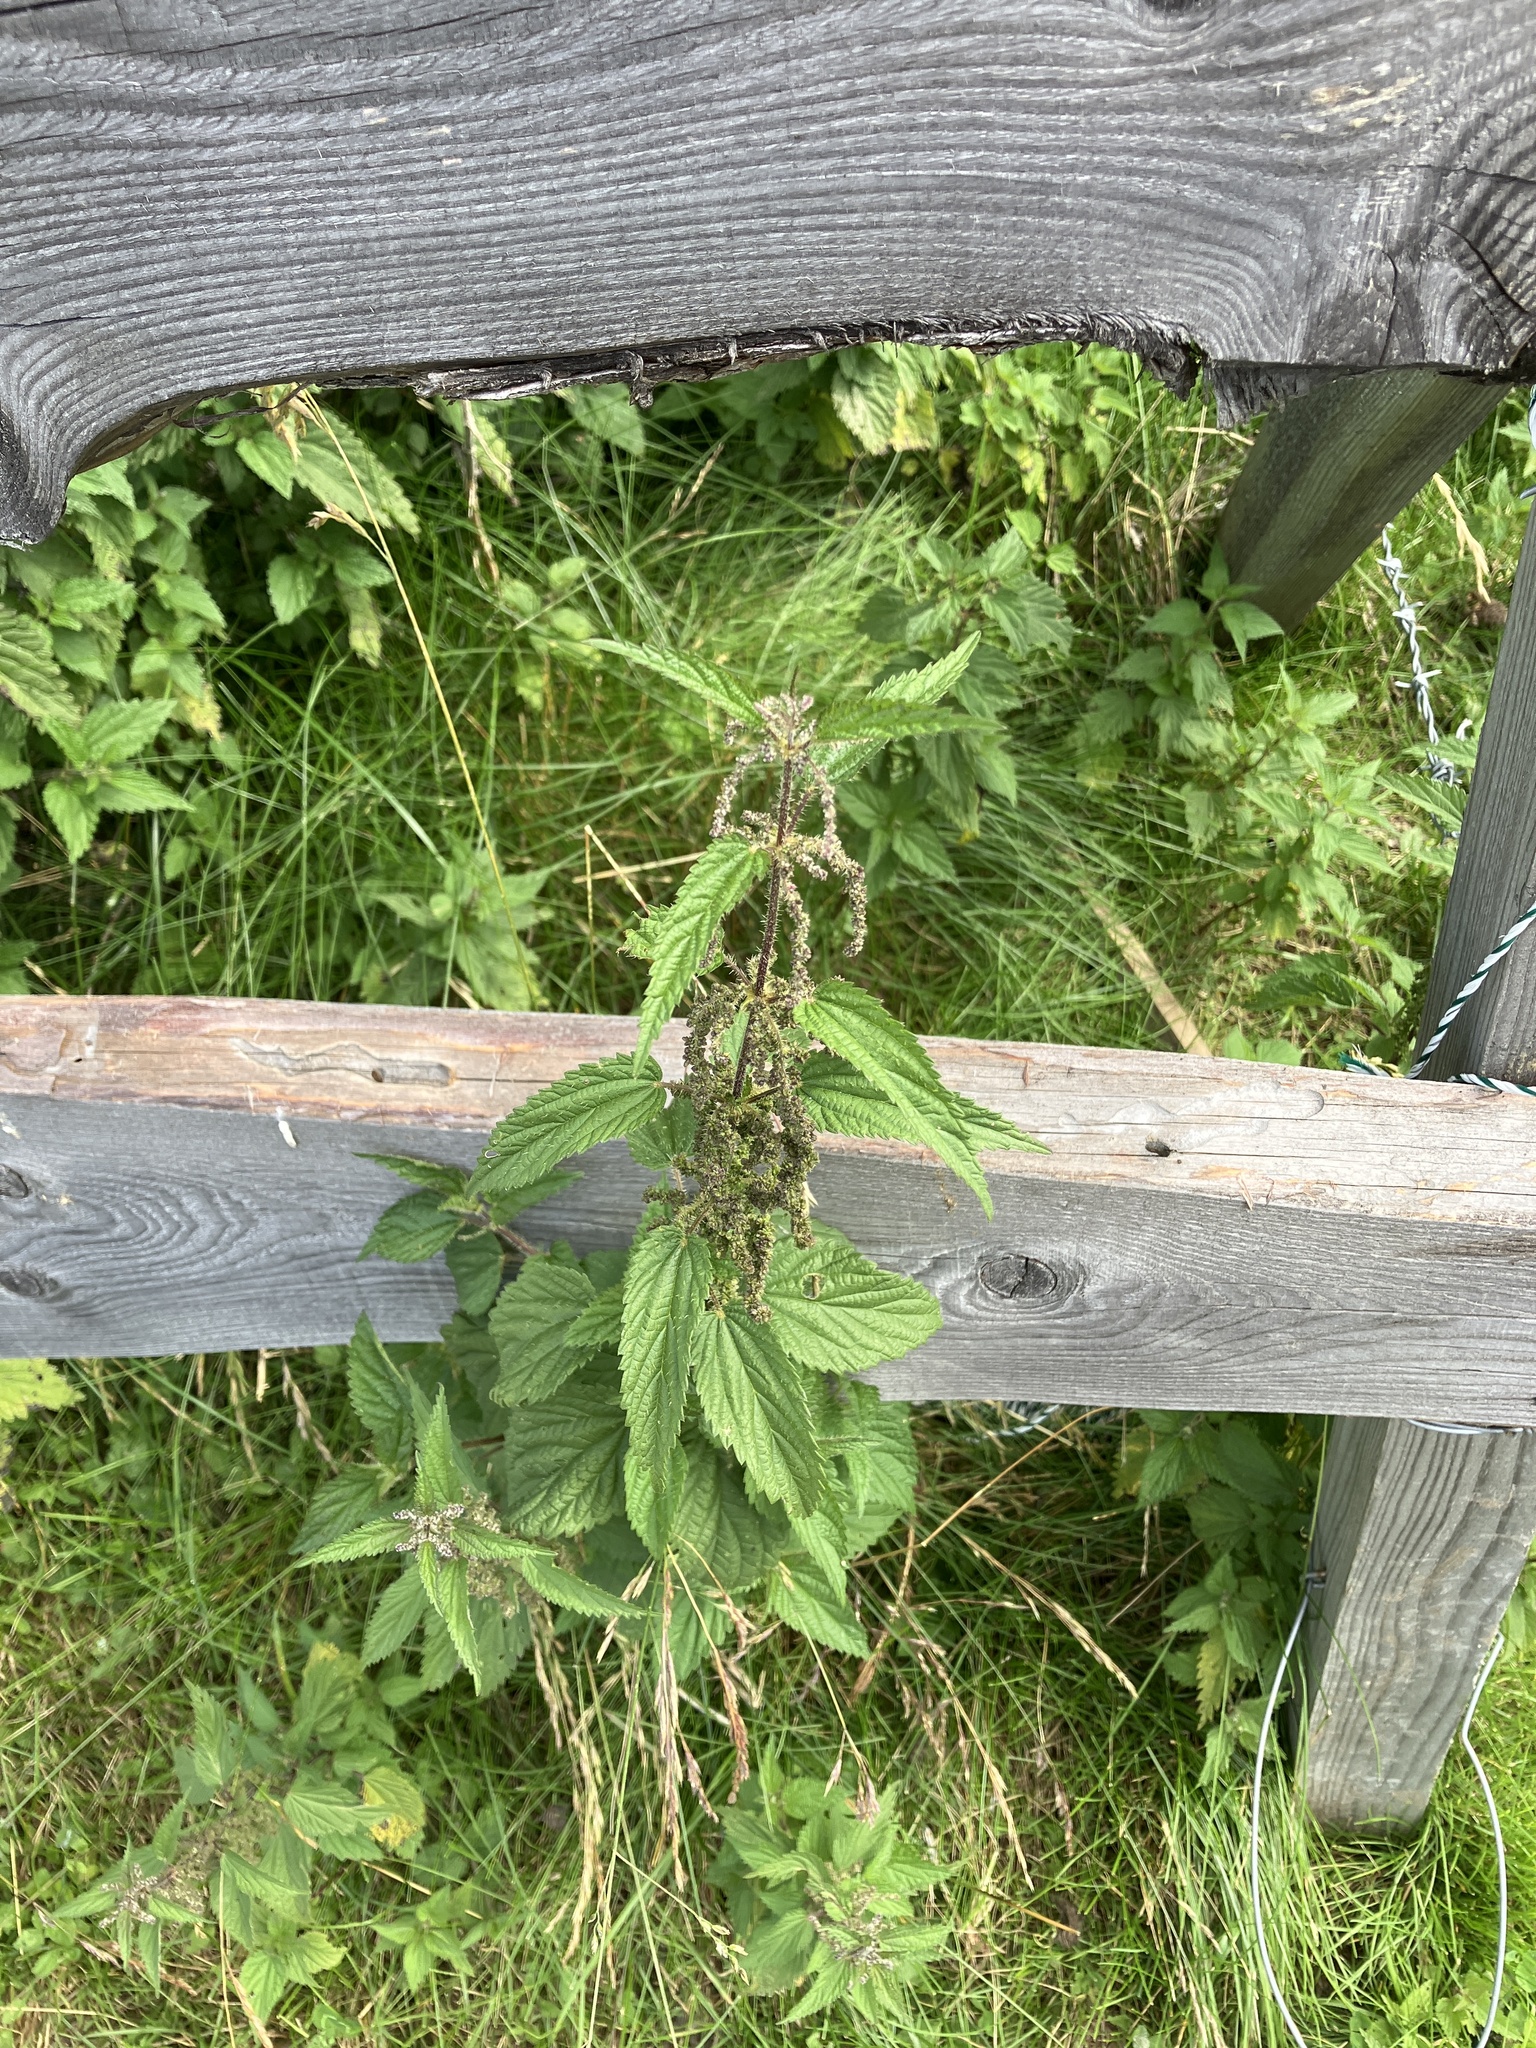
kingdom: Plantae
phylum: Tracheophyta
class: Magnoliopsida
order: Rosales
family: Urticaceae
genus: Urtica
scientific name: Urtica dioica
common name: Common nettle
